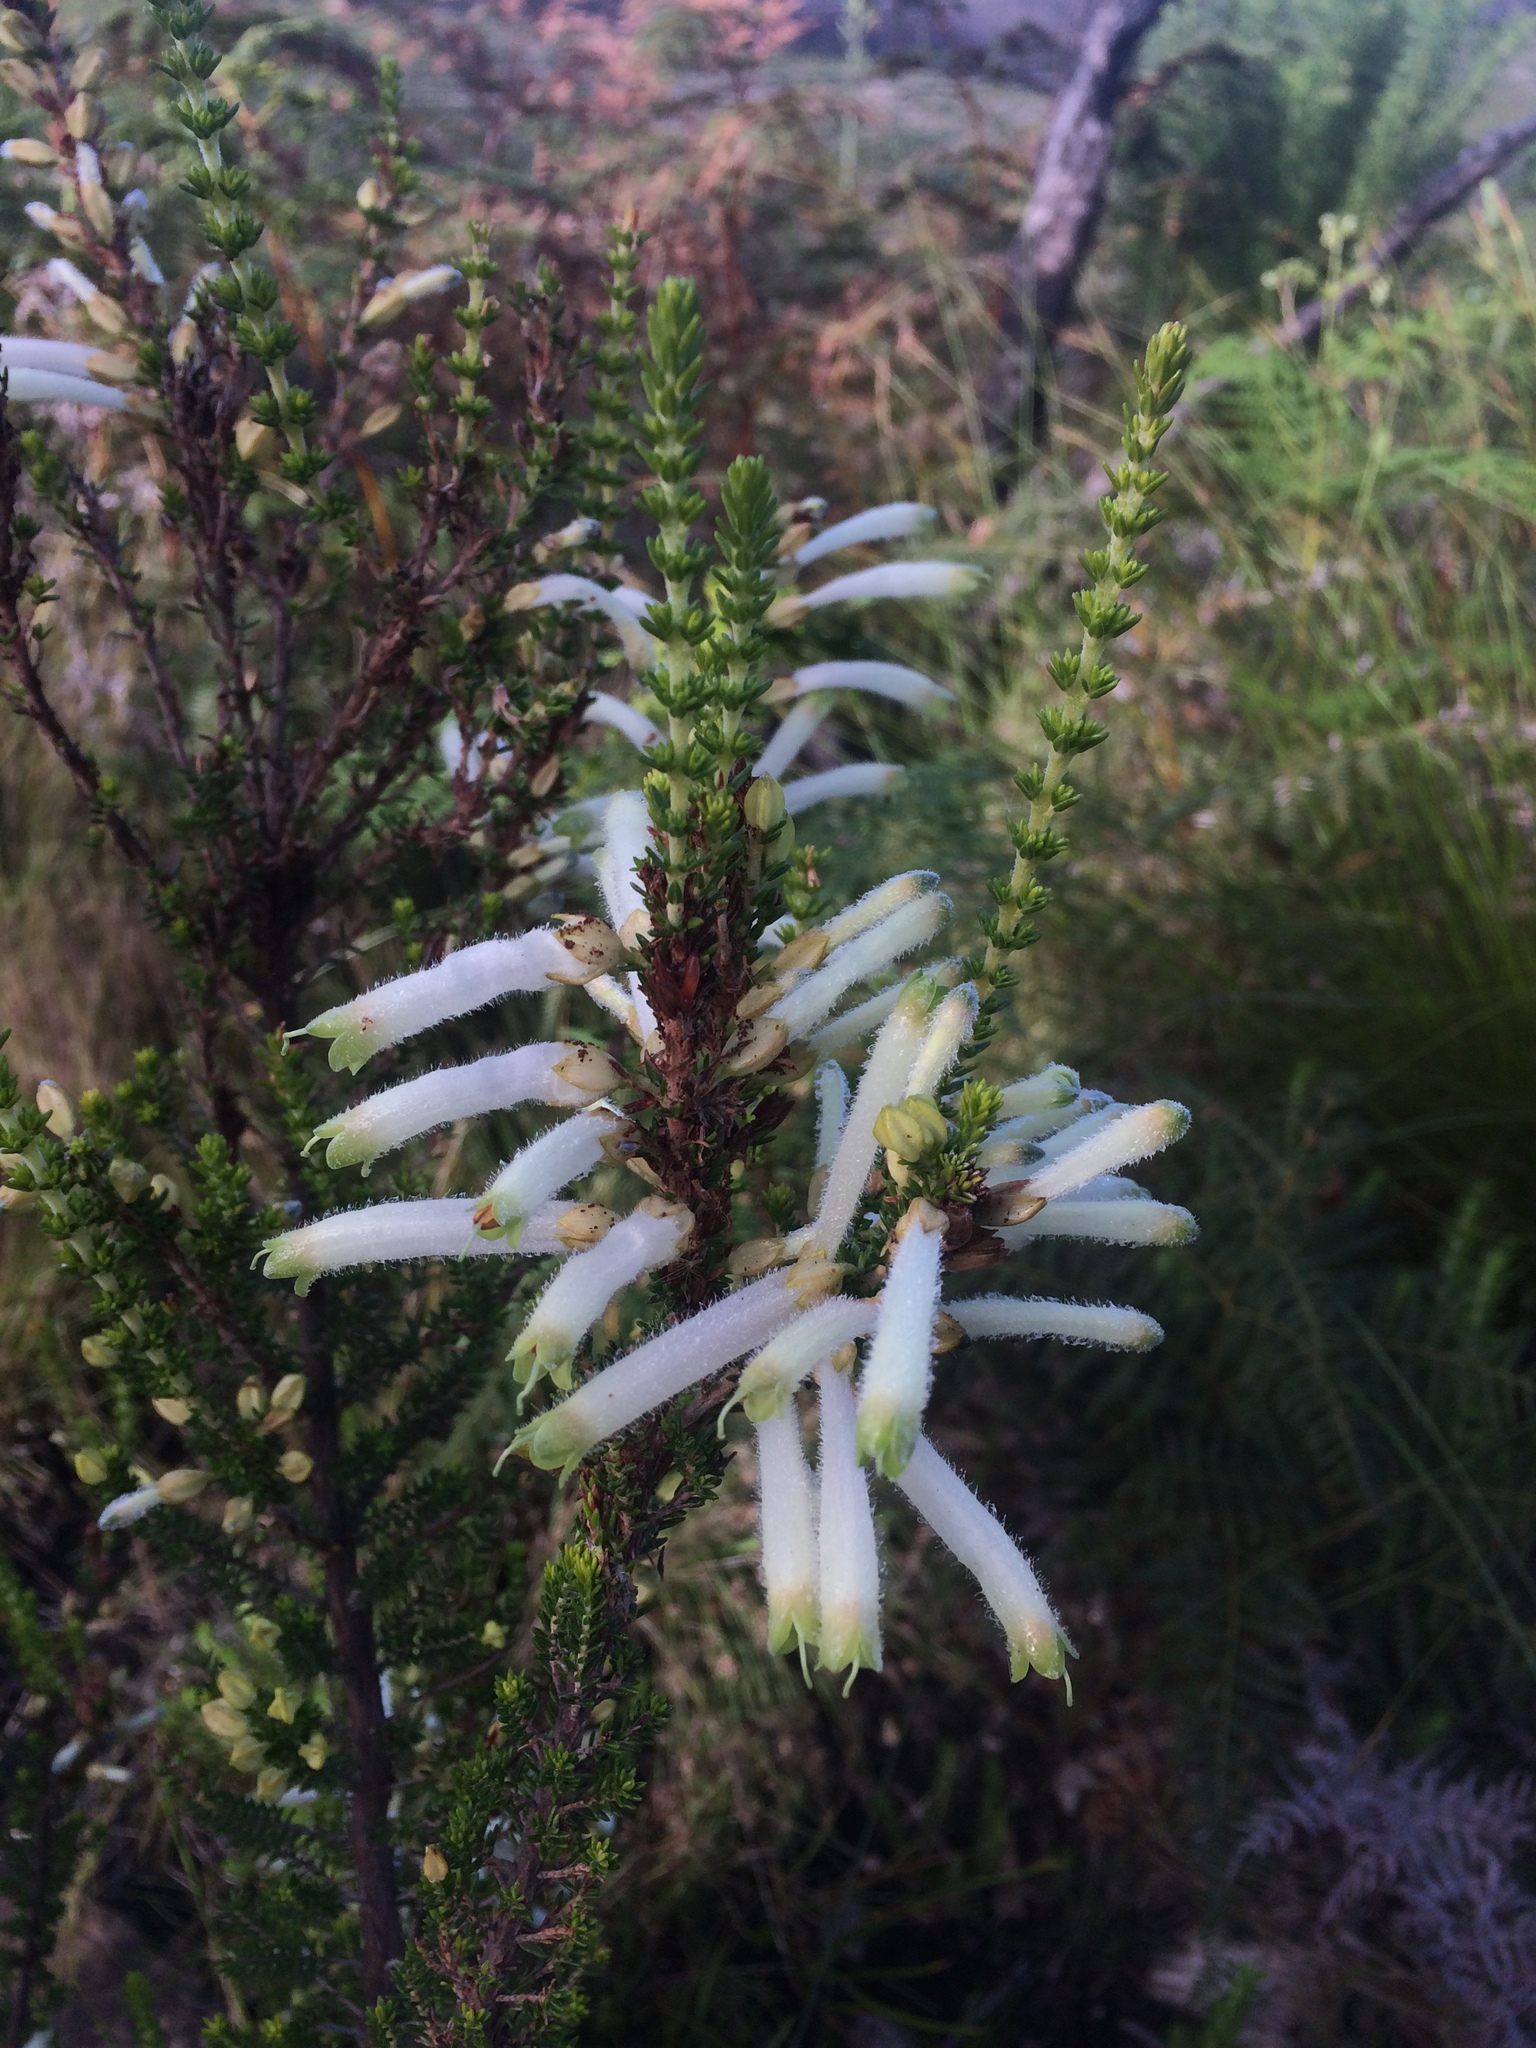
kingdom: Plantae
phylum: Tracheophyta
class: Magnoliopsida
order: Ericales
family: Ericaceae
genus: Erica
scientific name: Erica densifolia
